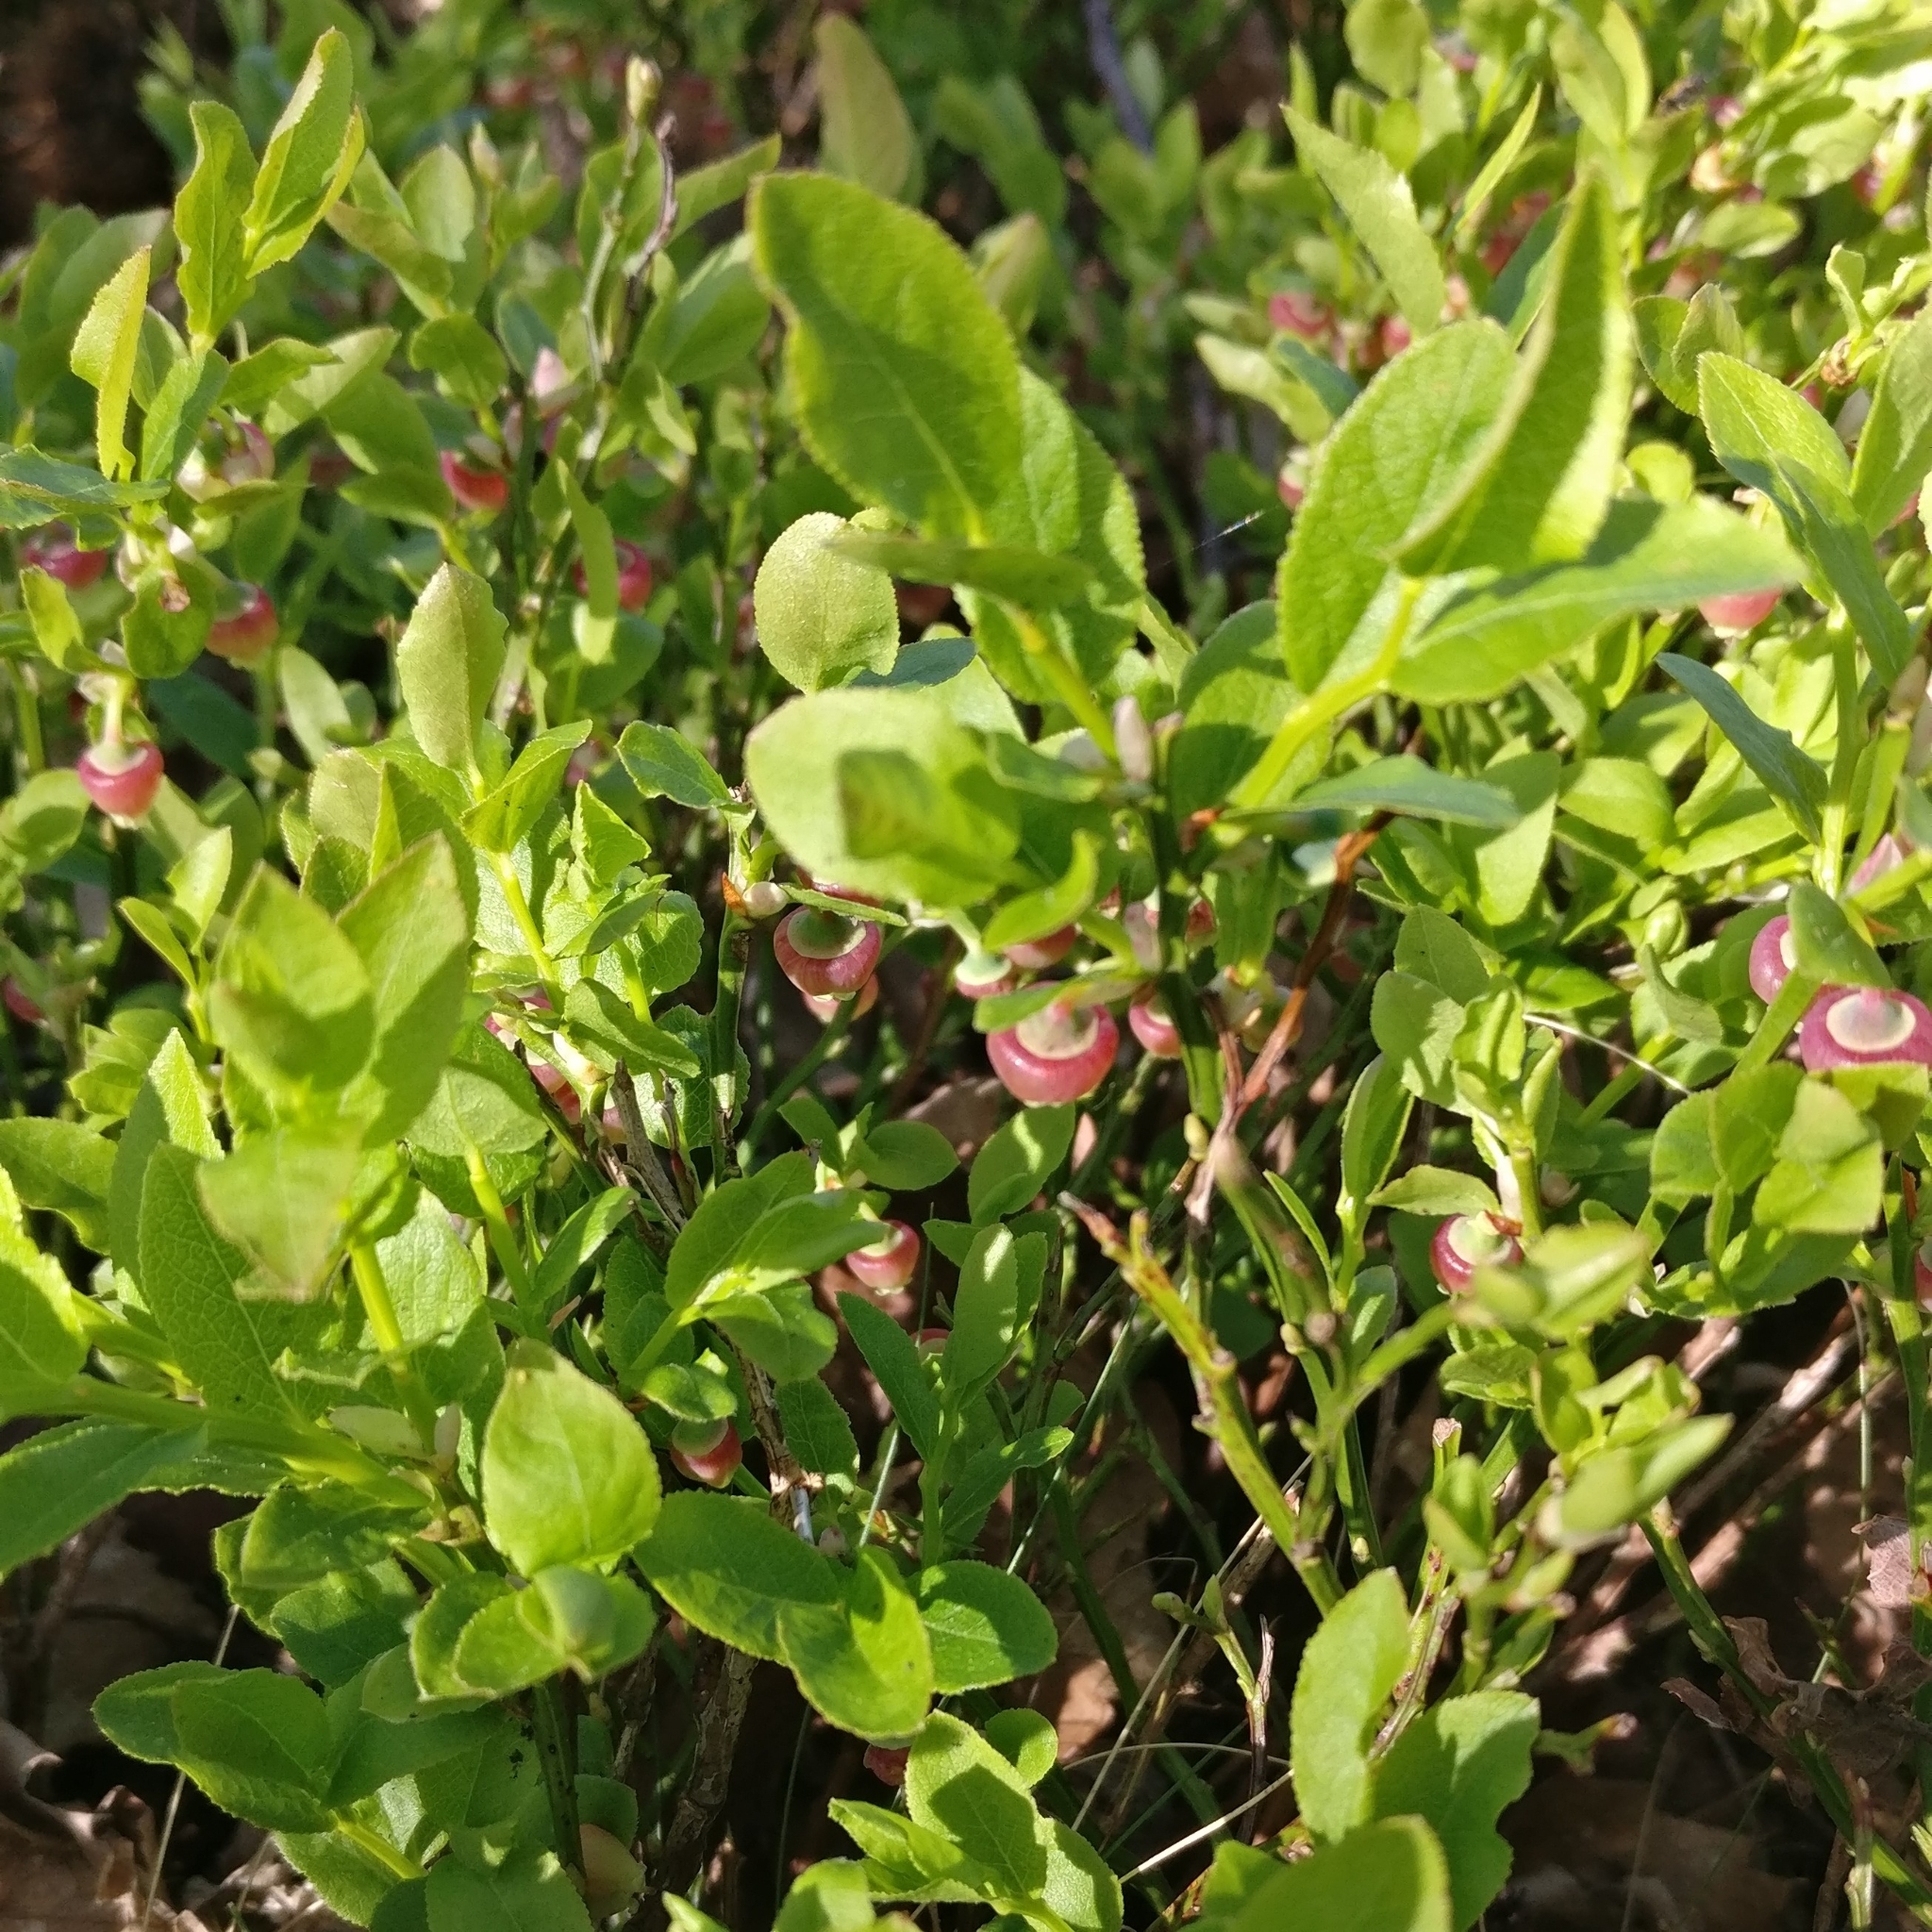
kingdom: Plantae
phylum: Tracheophyta
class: Magnoliopsida
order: Ericales
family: Ericaceae
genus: Vaccinium
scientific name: Vaccinium myrtillus
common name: Bilberry
